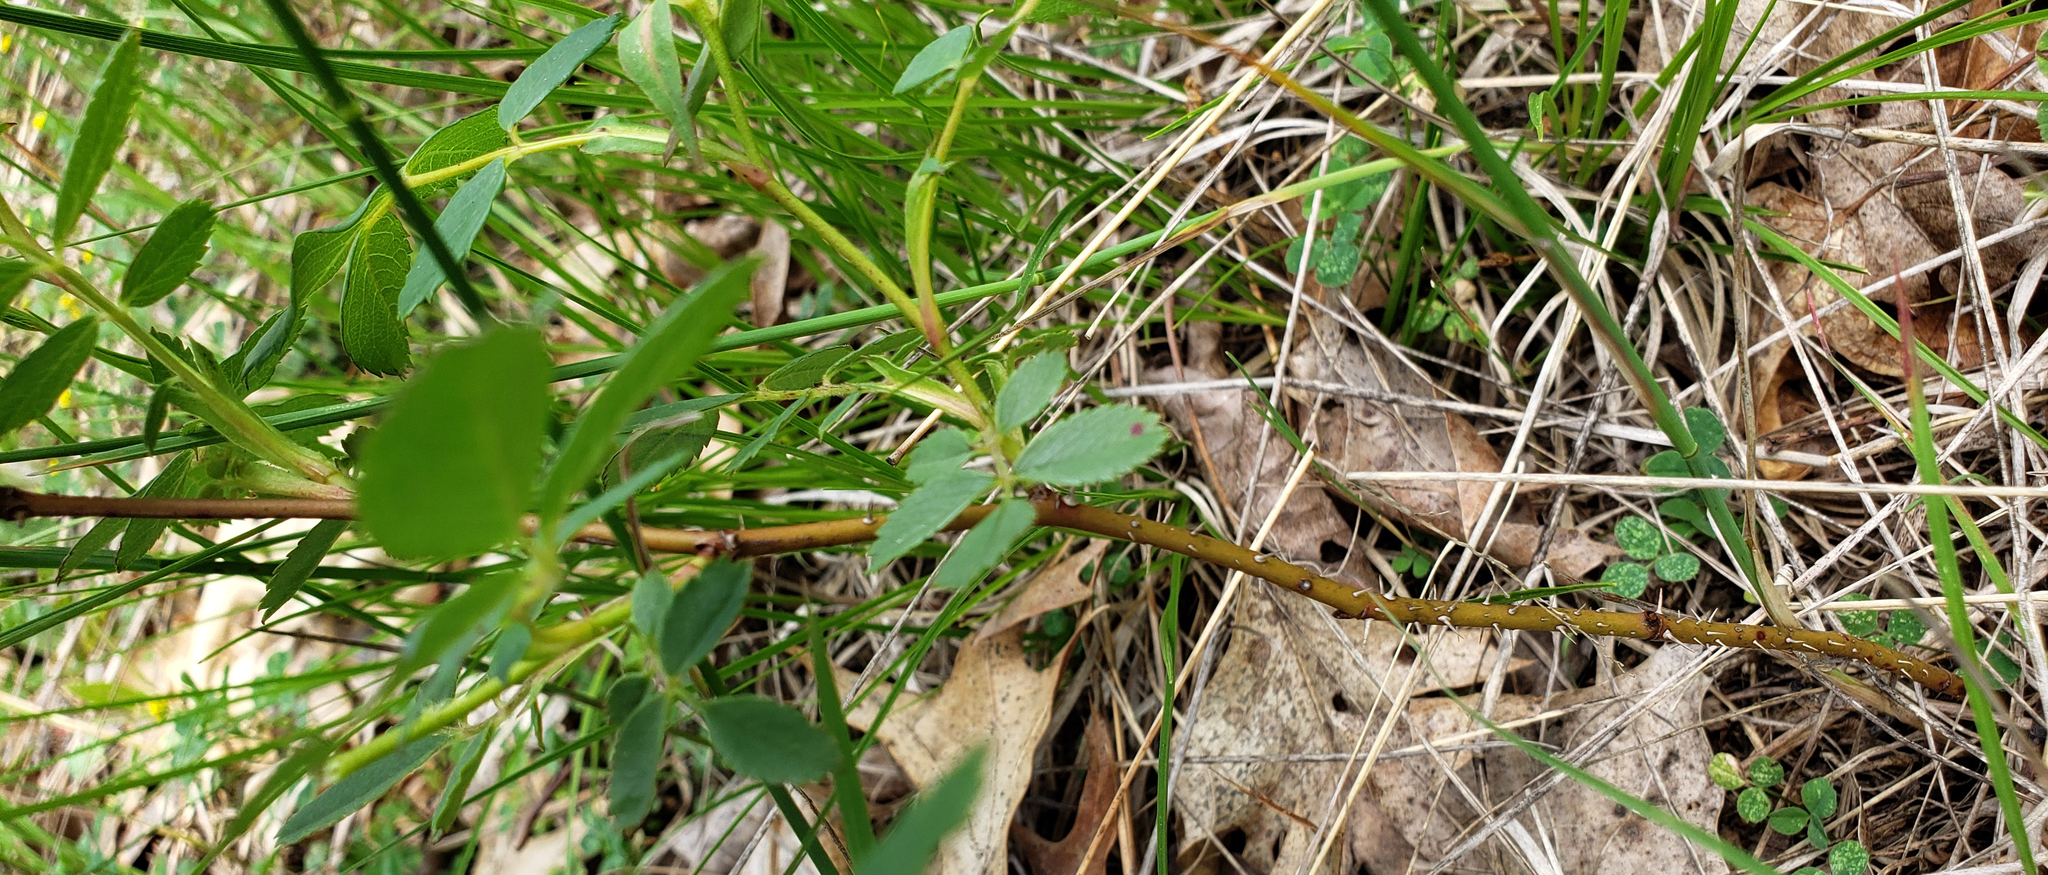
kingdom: Plantae
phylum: Tracheophyta
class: Magnoliopsida
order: Rosales
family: Rosaceae
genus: Rosa
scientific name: Rosa carolina
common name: Pasture rose
